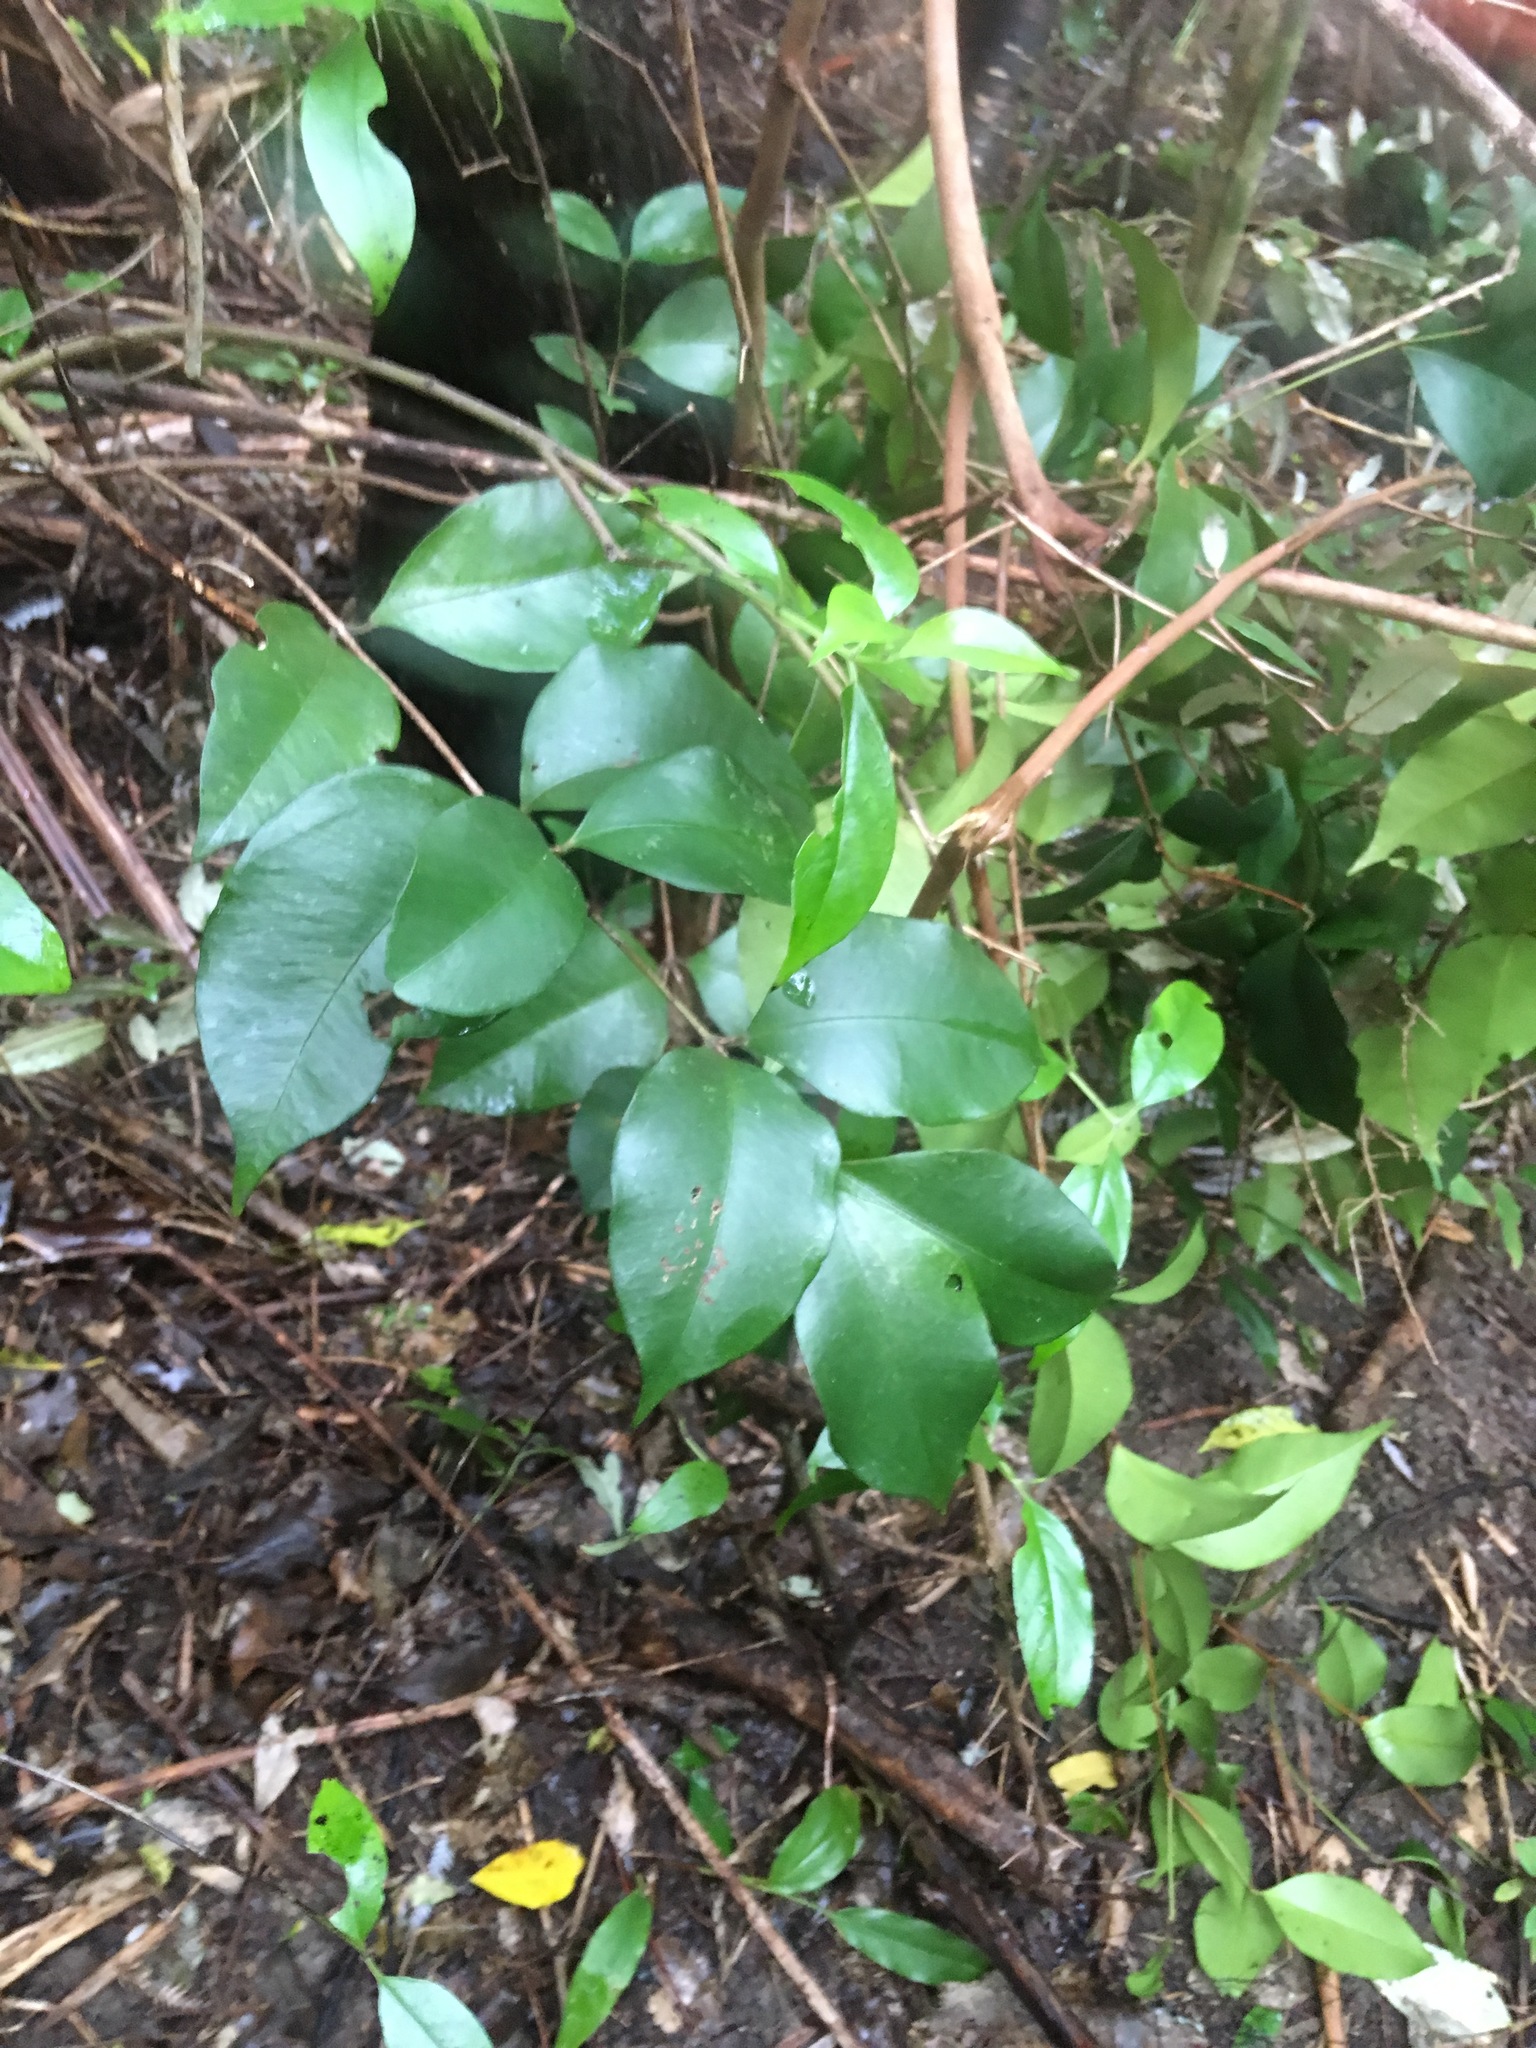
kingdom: Plantae
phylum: Tracheophyta
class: Magnoliopsida
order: Myrtales
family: Myrtaceae
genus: Syzygium
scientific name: Syzygium smithii
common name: Lilly-pilly
